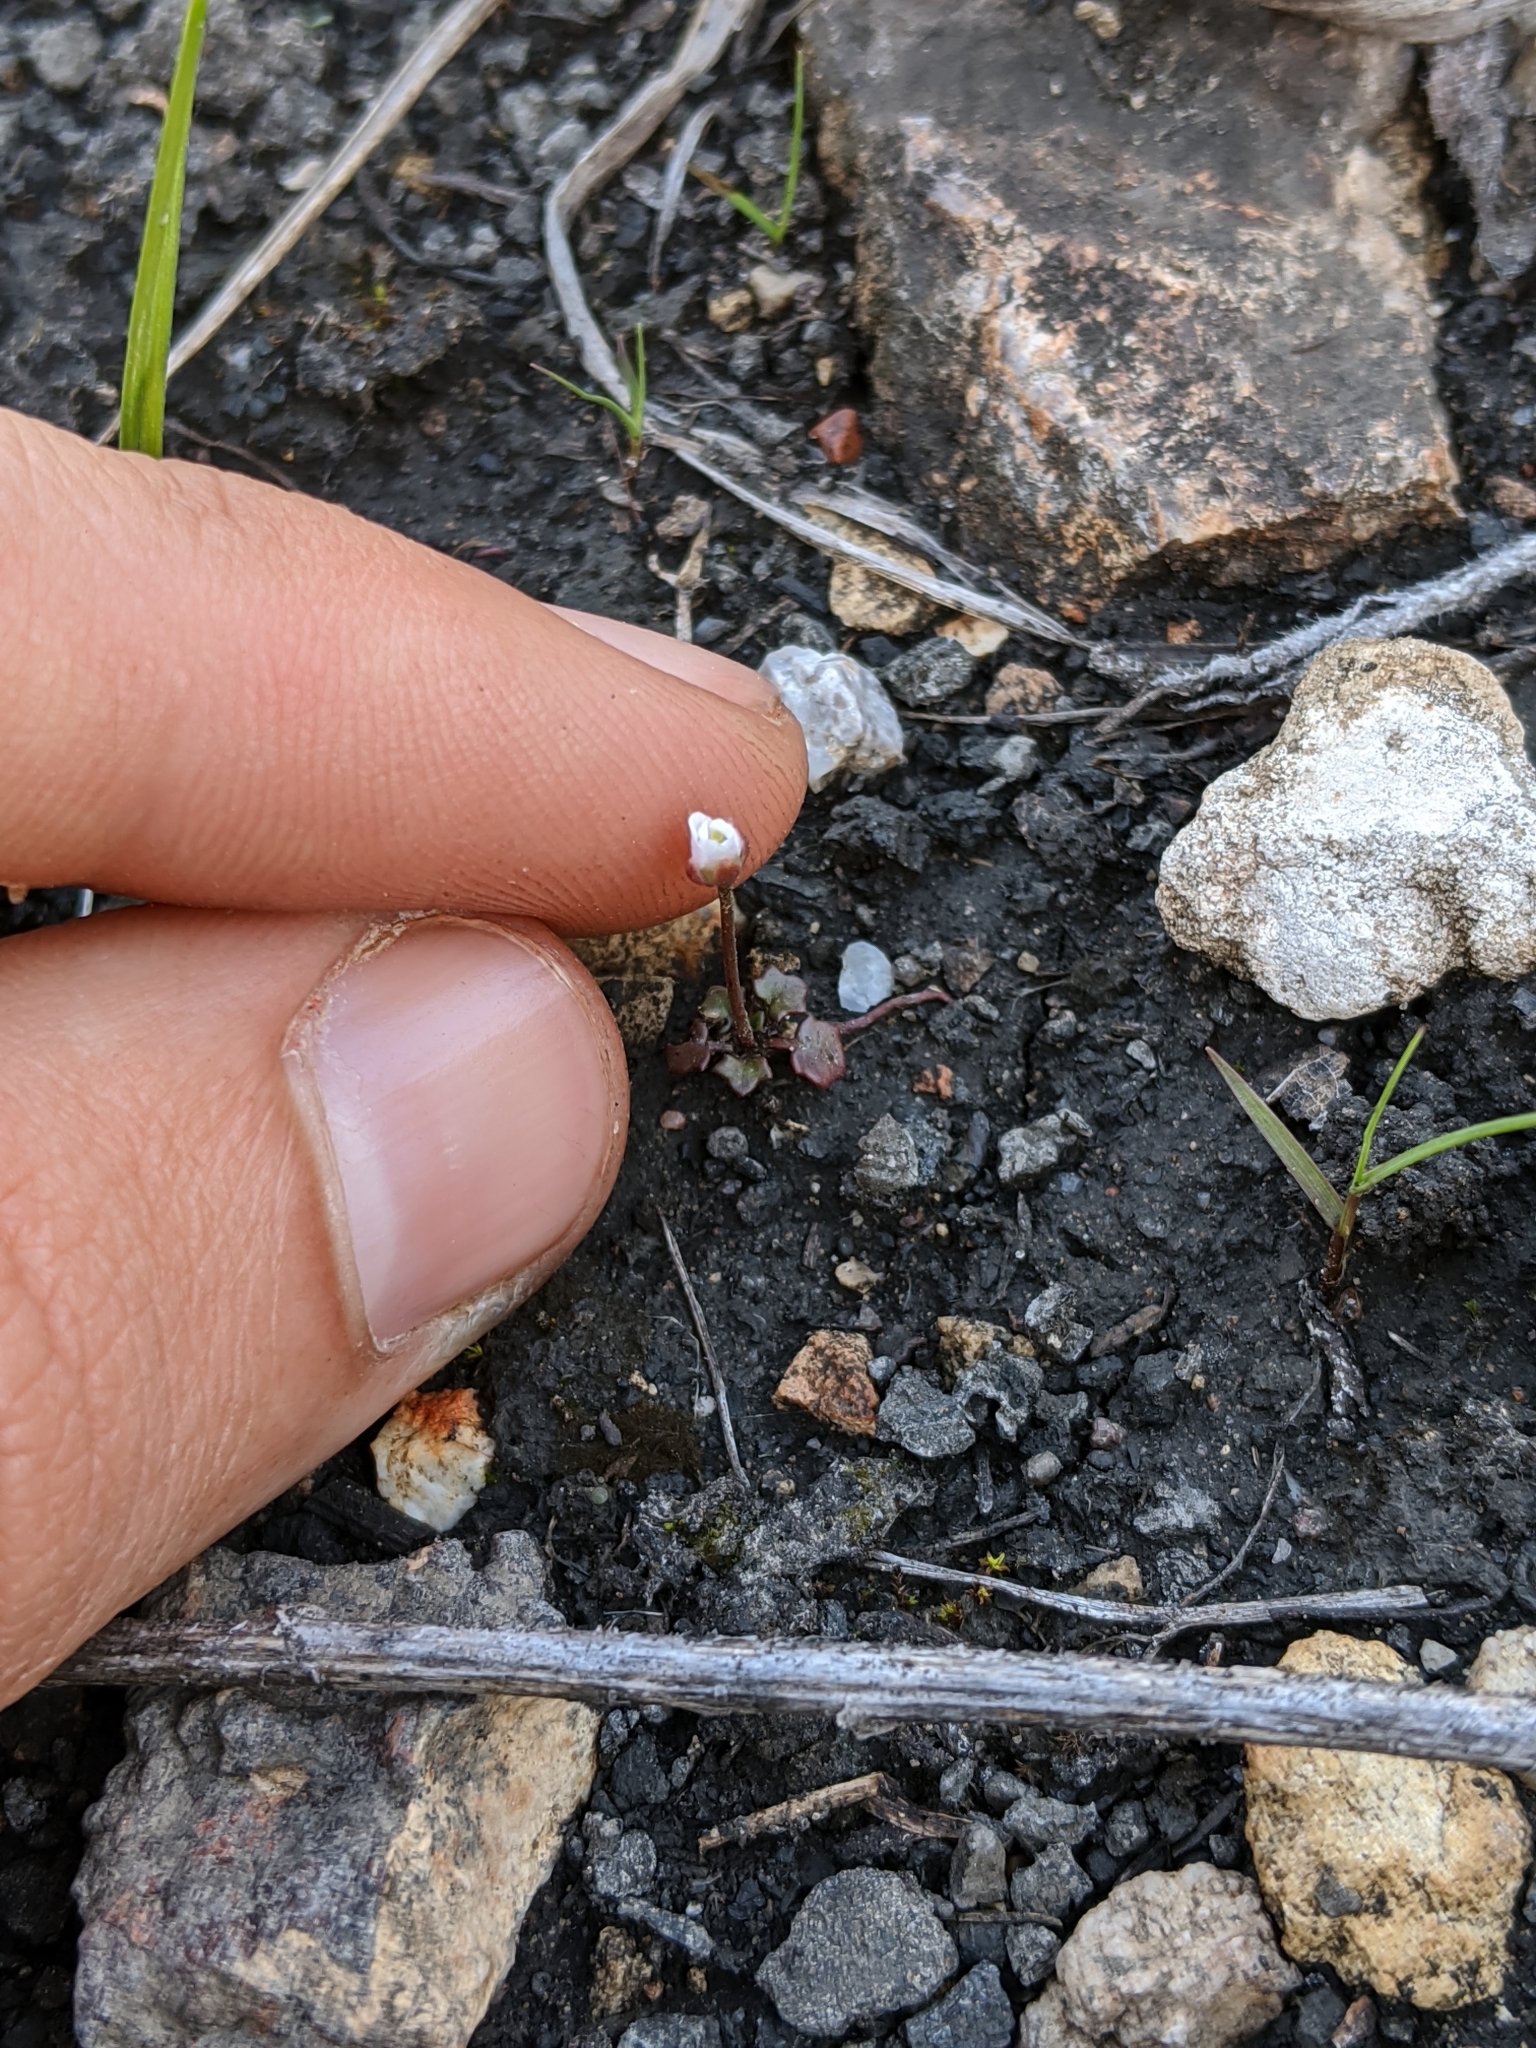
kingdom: Plantae
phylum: Tracheophyta
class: Magnoliopsida
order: Brassicales
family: Brassicaceae
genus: Leavenworthia
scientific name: Leavenworthia uniflora
